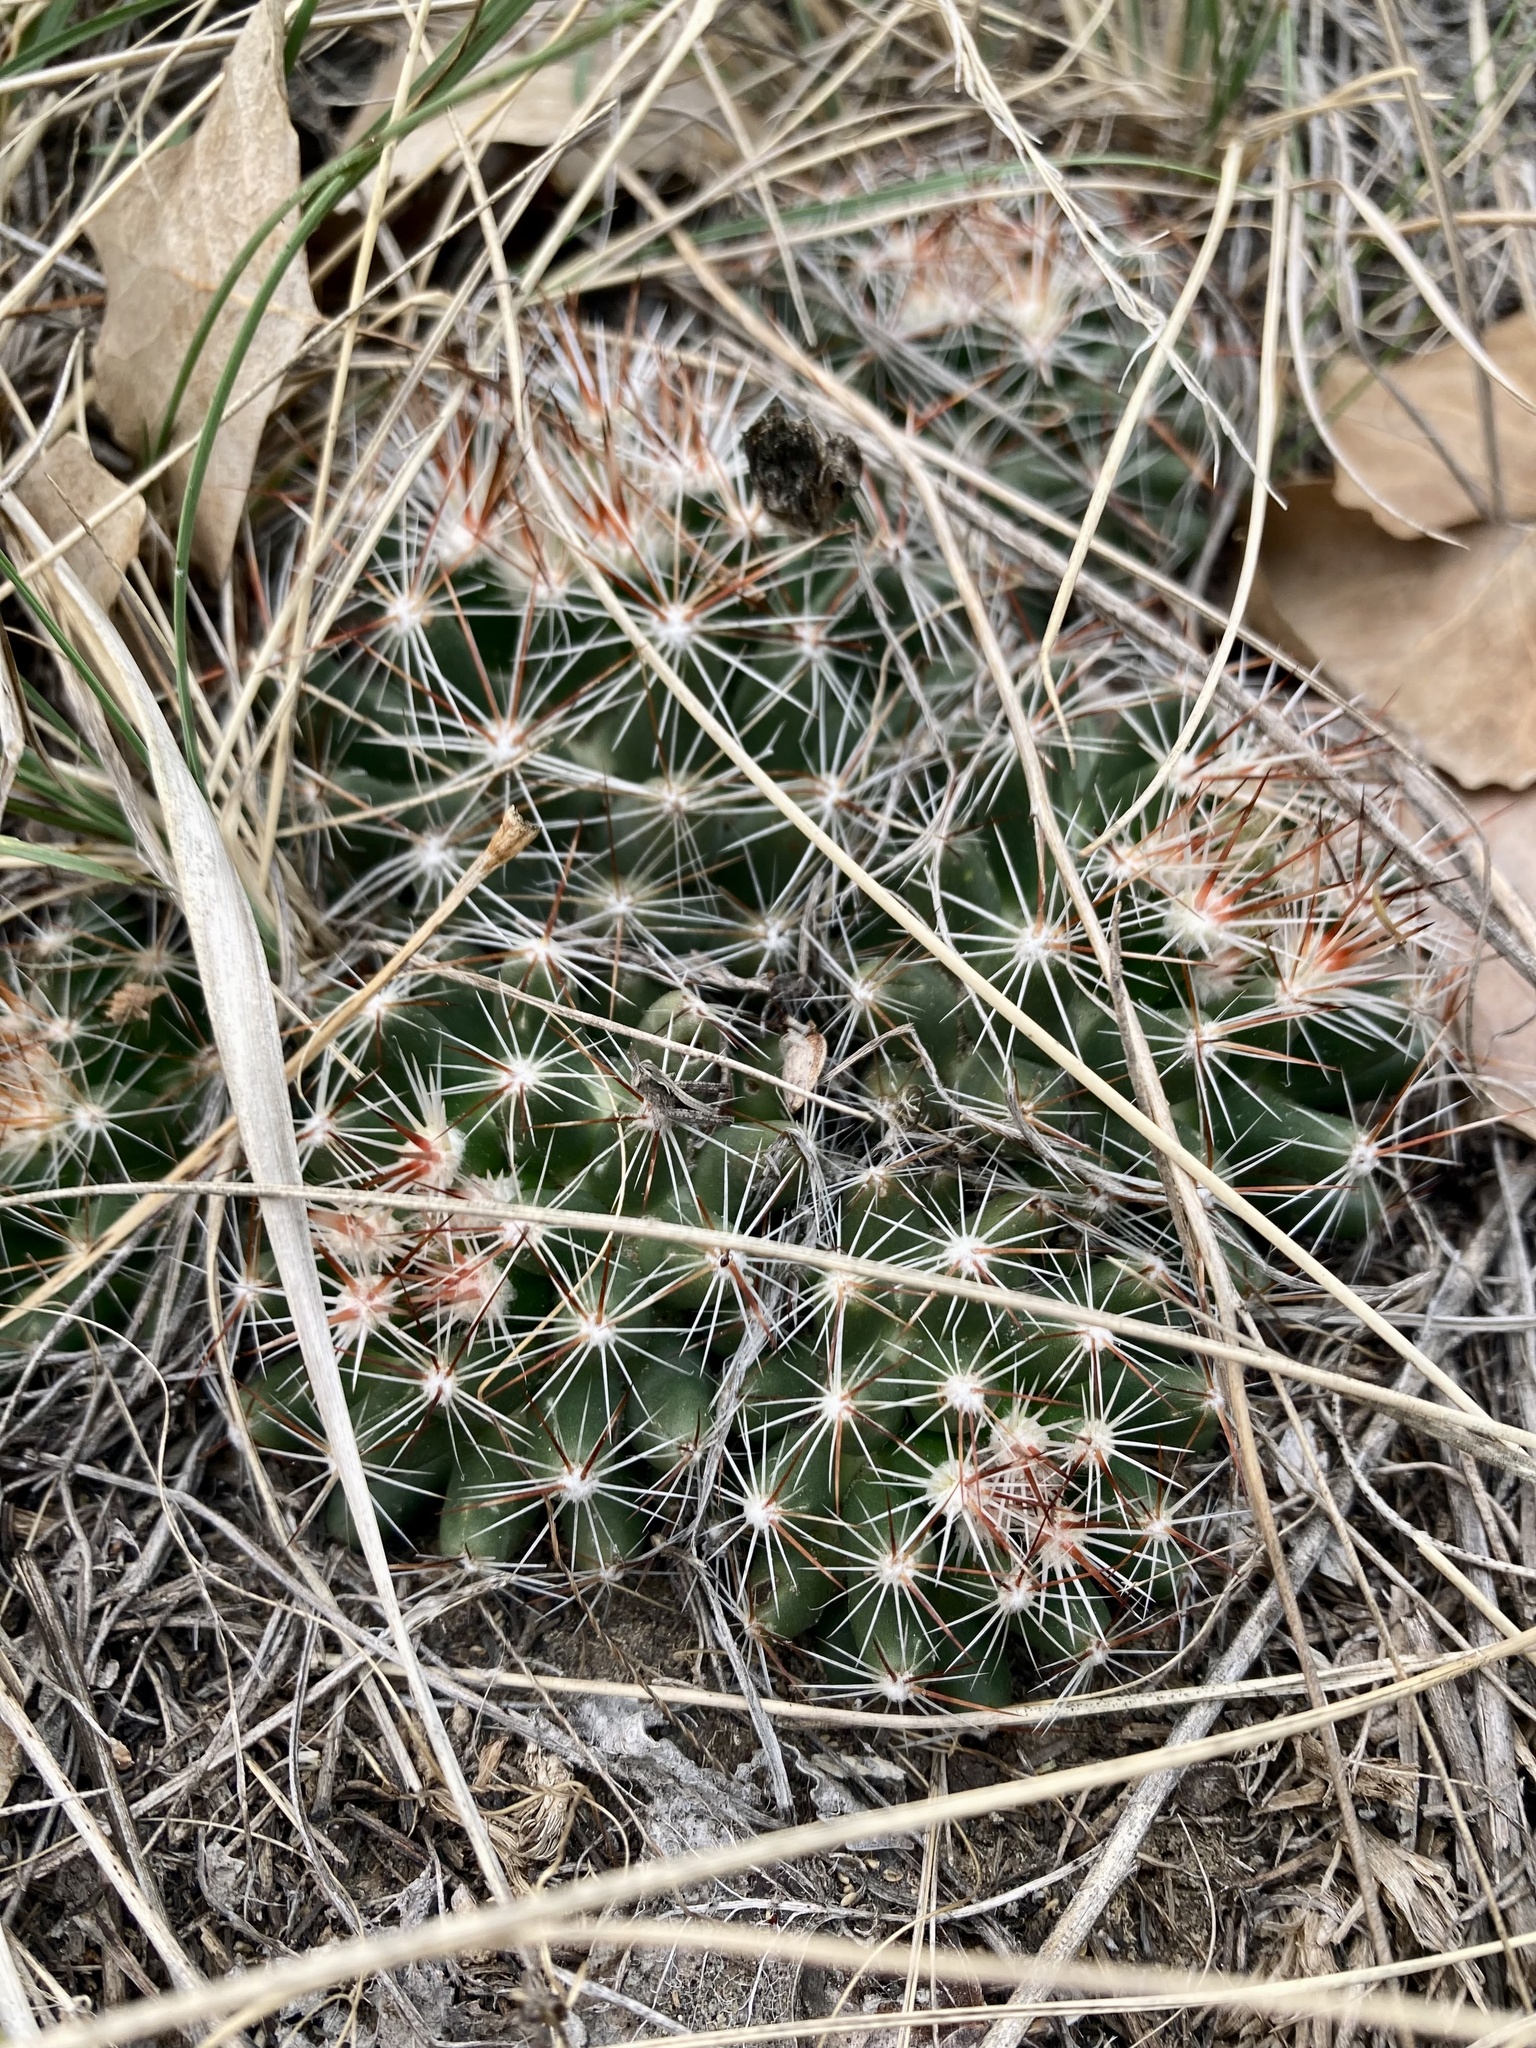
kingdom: Plantae
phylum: Tracheophyta
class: Magnoliopsida
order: Caryophyllales
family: Cactaceae
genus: Pelecyphora
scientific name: Pelecyphora vivipara
